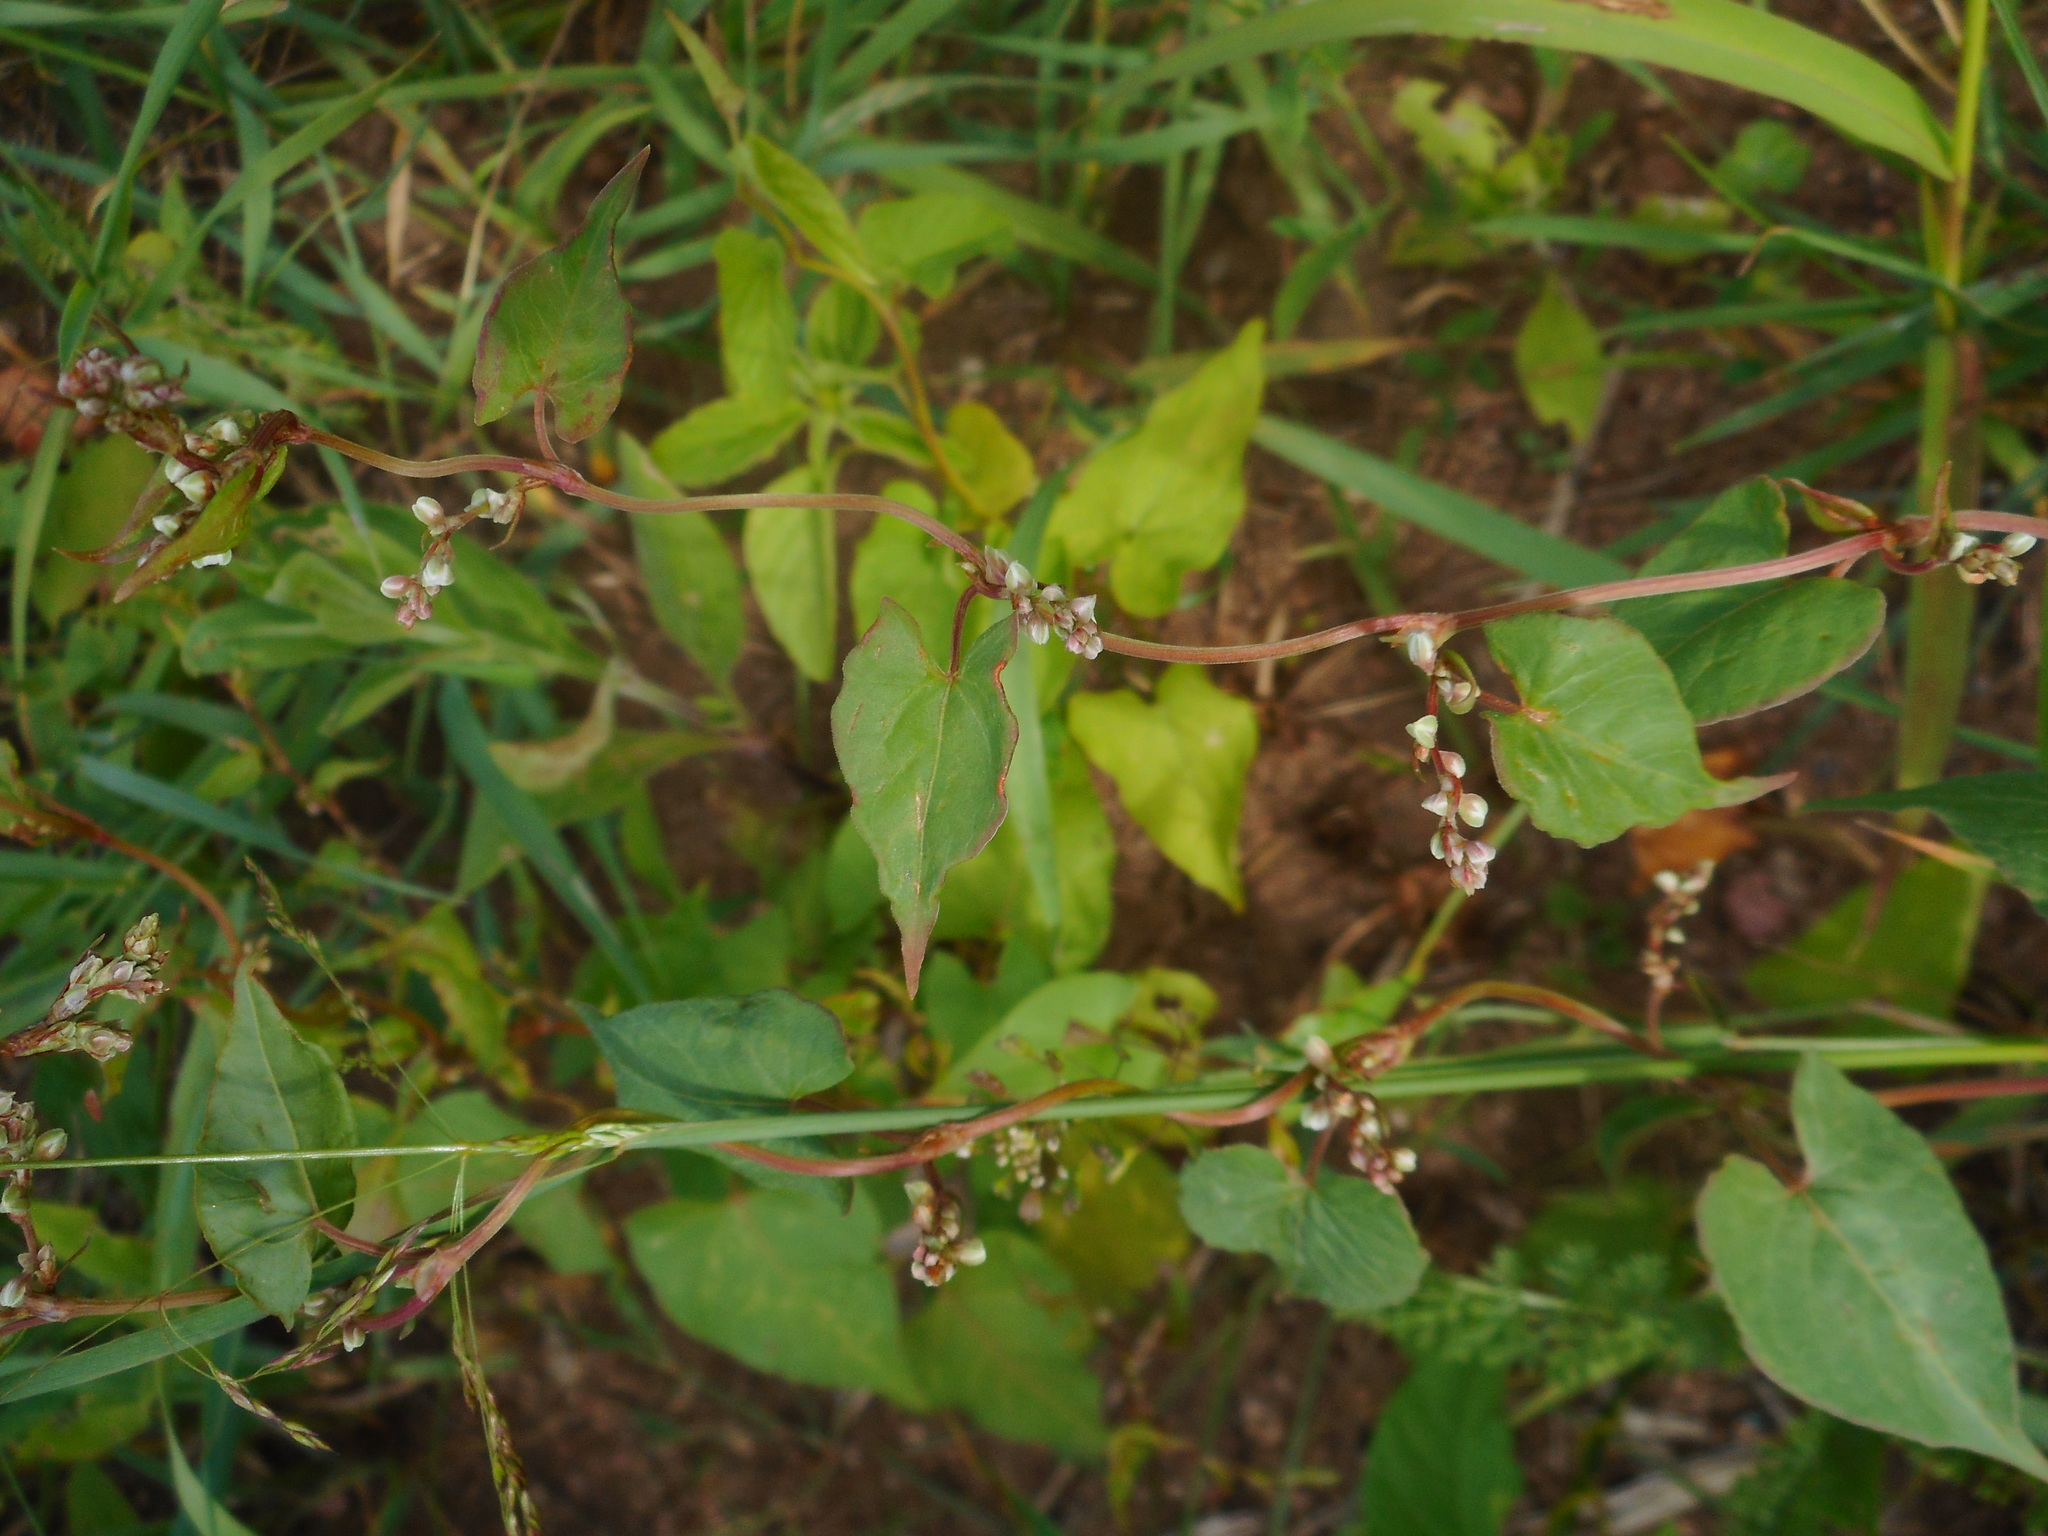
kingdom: Plantae
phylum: Tracheophyta
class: Magnoliopsida
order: Caryophyllales
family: Polygonaceae
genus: Fallopia
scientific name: Fallopia convolvulus
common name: Black bindweed
